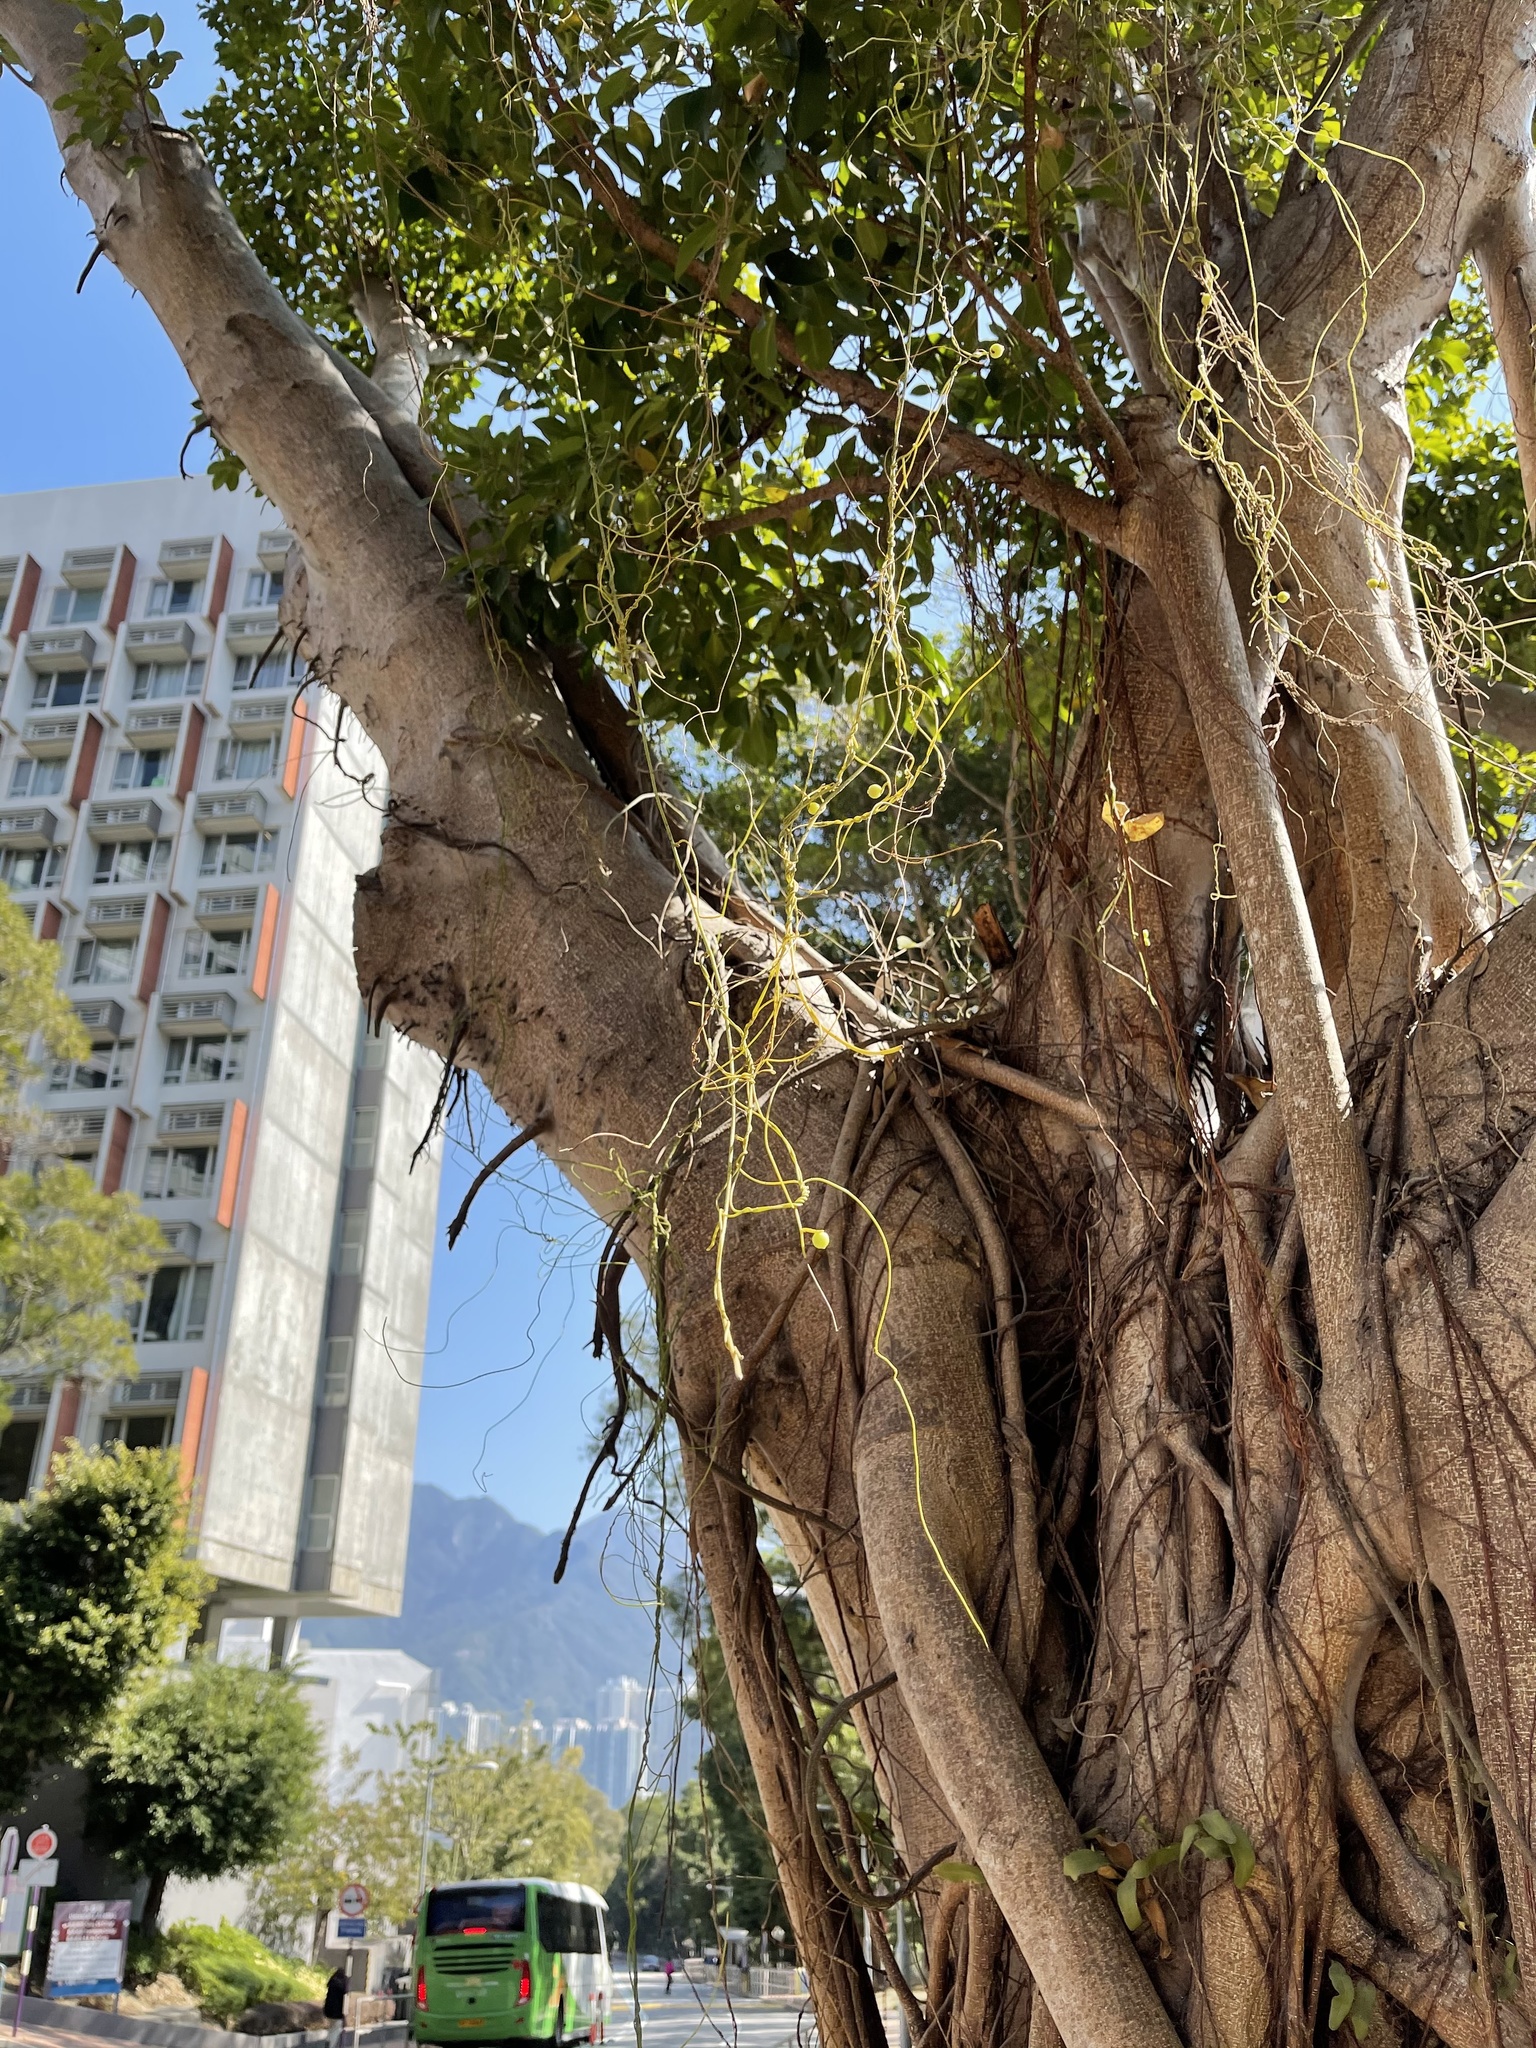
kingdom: Plantae
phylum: Tracheophyta
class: Magnoliopsida
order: Laurales
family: Lauraceae
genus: Cassytha
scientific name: Cassytha filiformis
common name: Dodder-laurel
